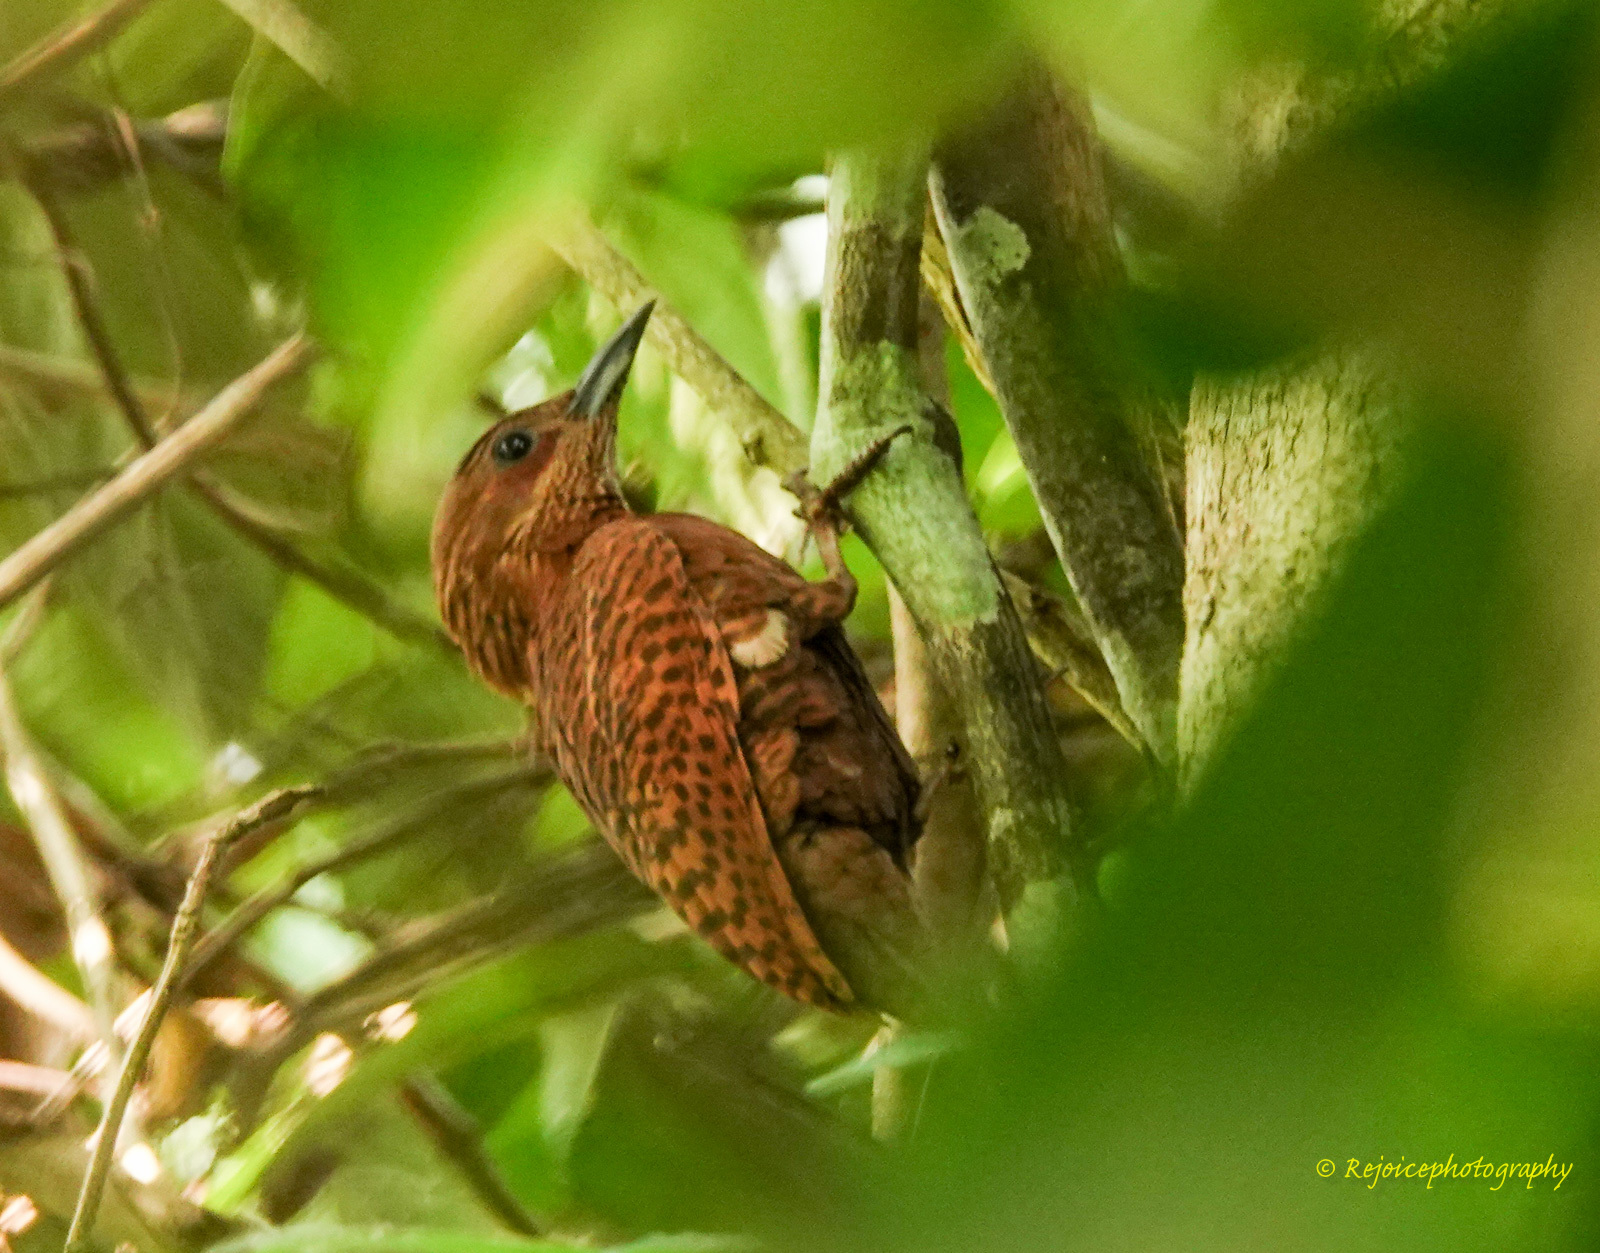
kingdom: Animalia
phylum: Chordata
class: Aves
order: Piciformes
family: Picidae
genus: Micropternus
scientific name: Micropternus brachyurus
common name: Rufous woodpecker
